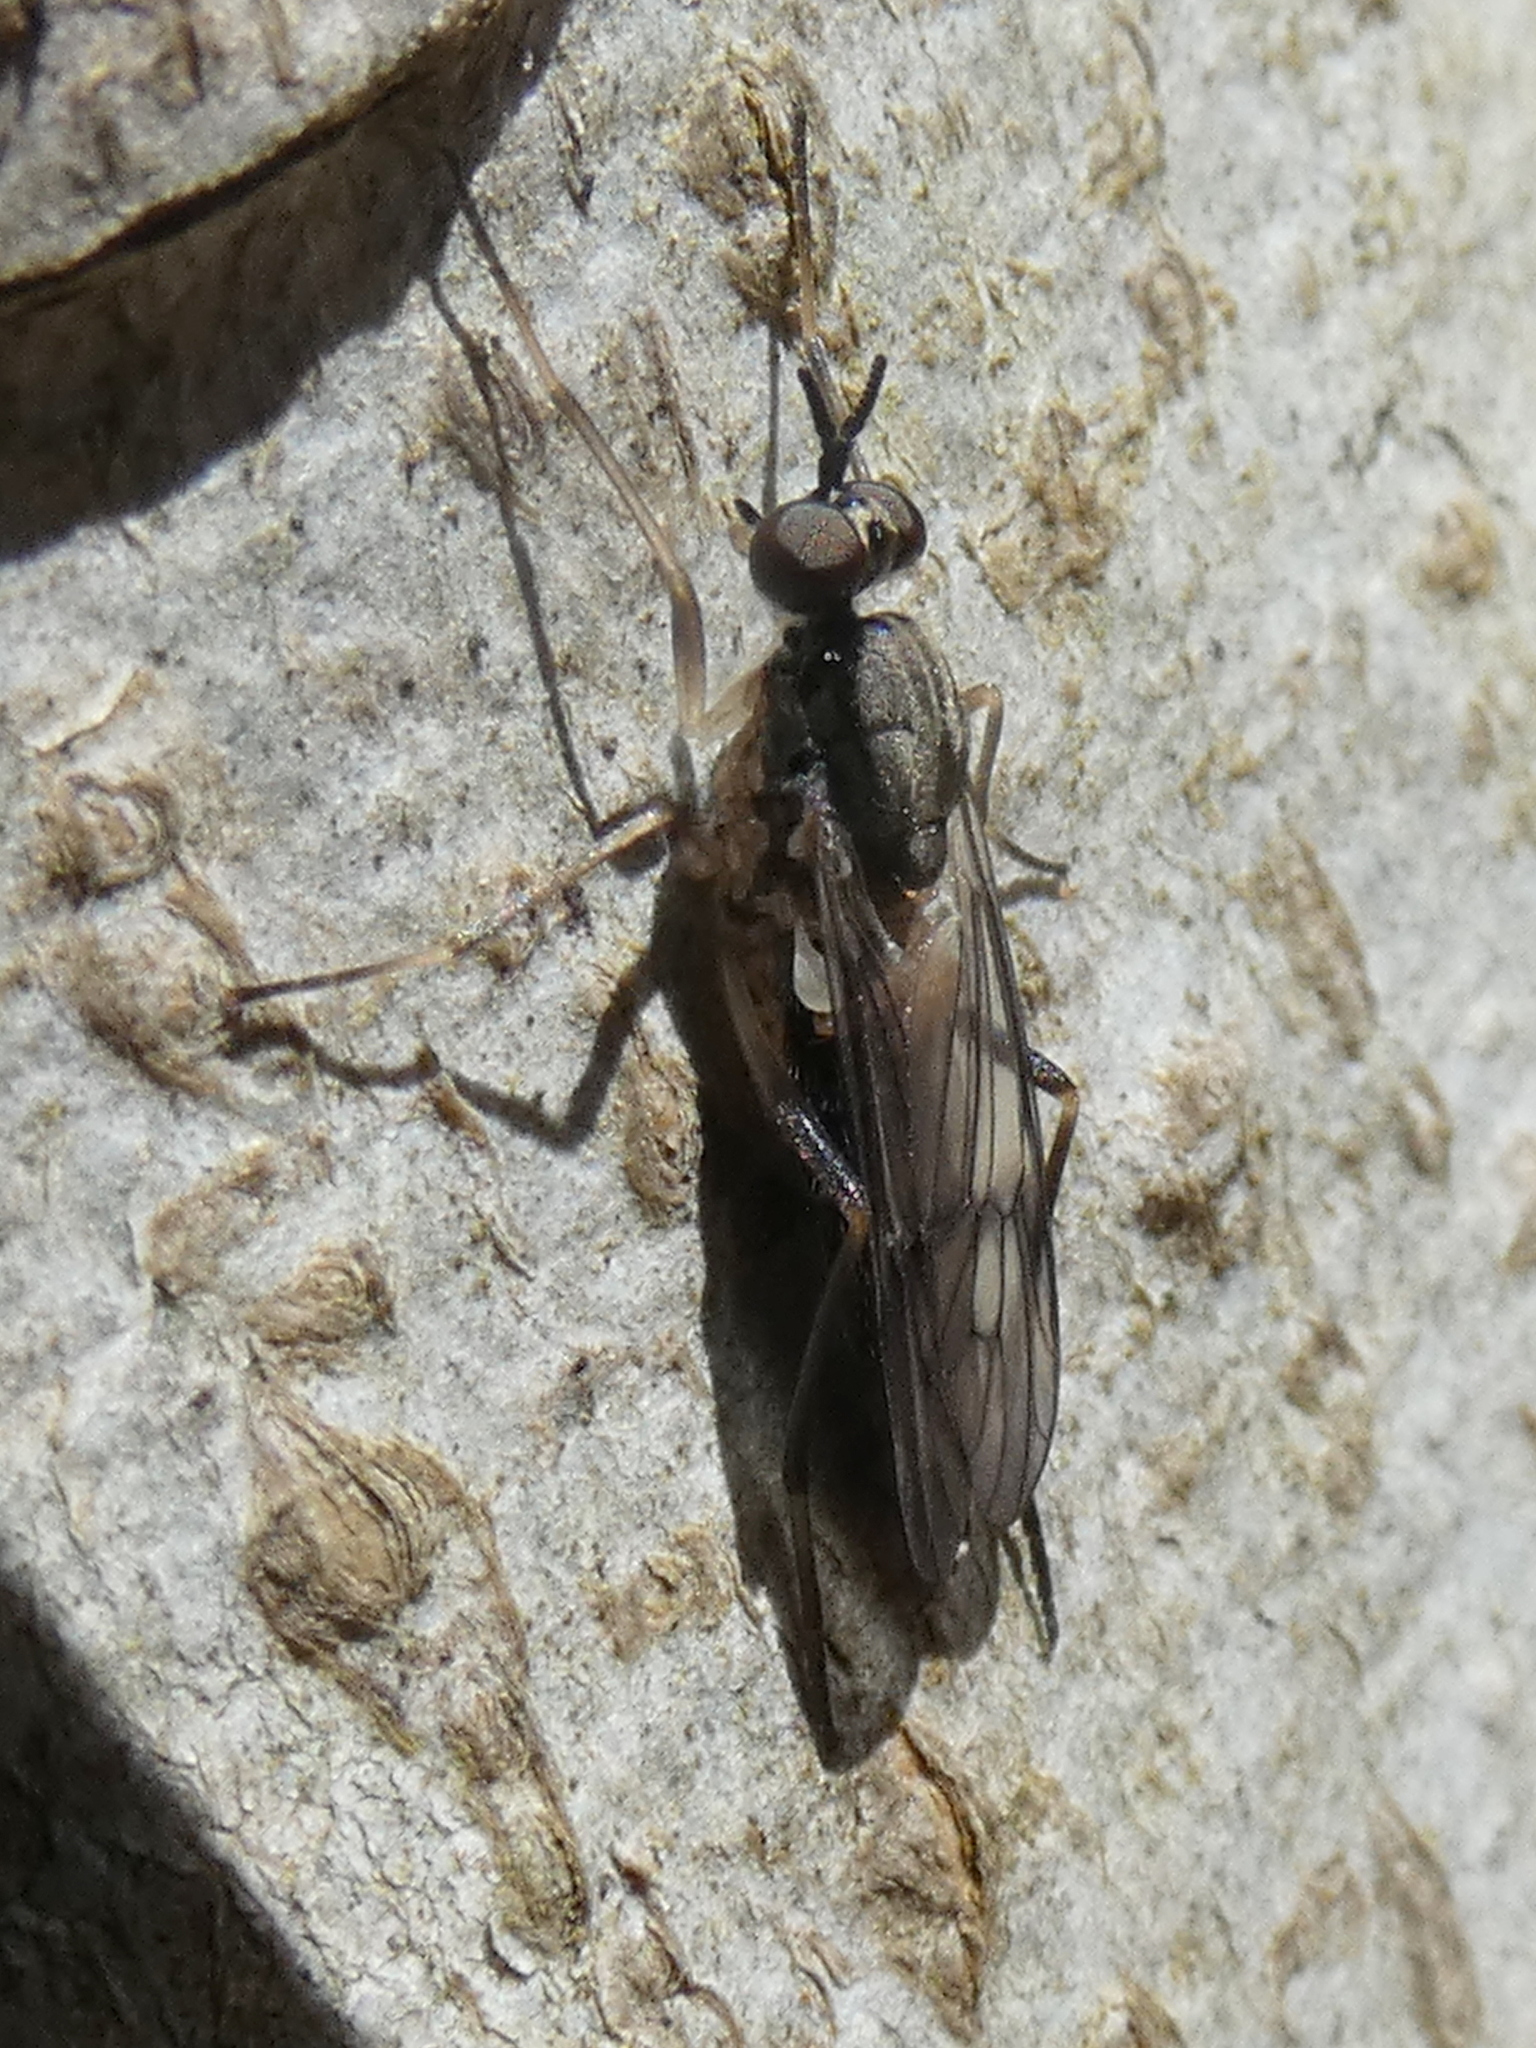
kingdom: Animalia
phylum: Arthropoda
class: Insecta
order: Diptera
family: Xylophagidae
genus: Xylophagus
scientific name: Xylophagus lugens
